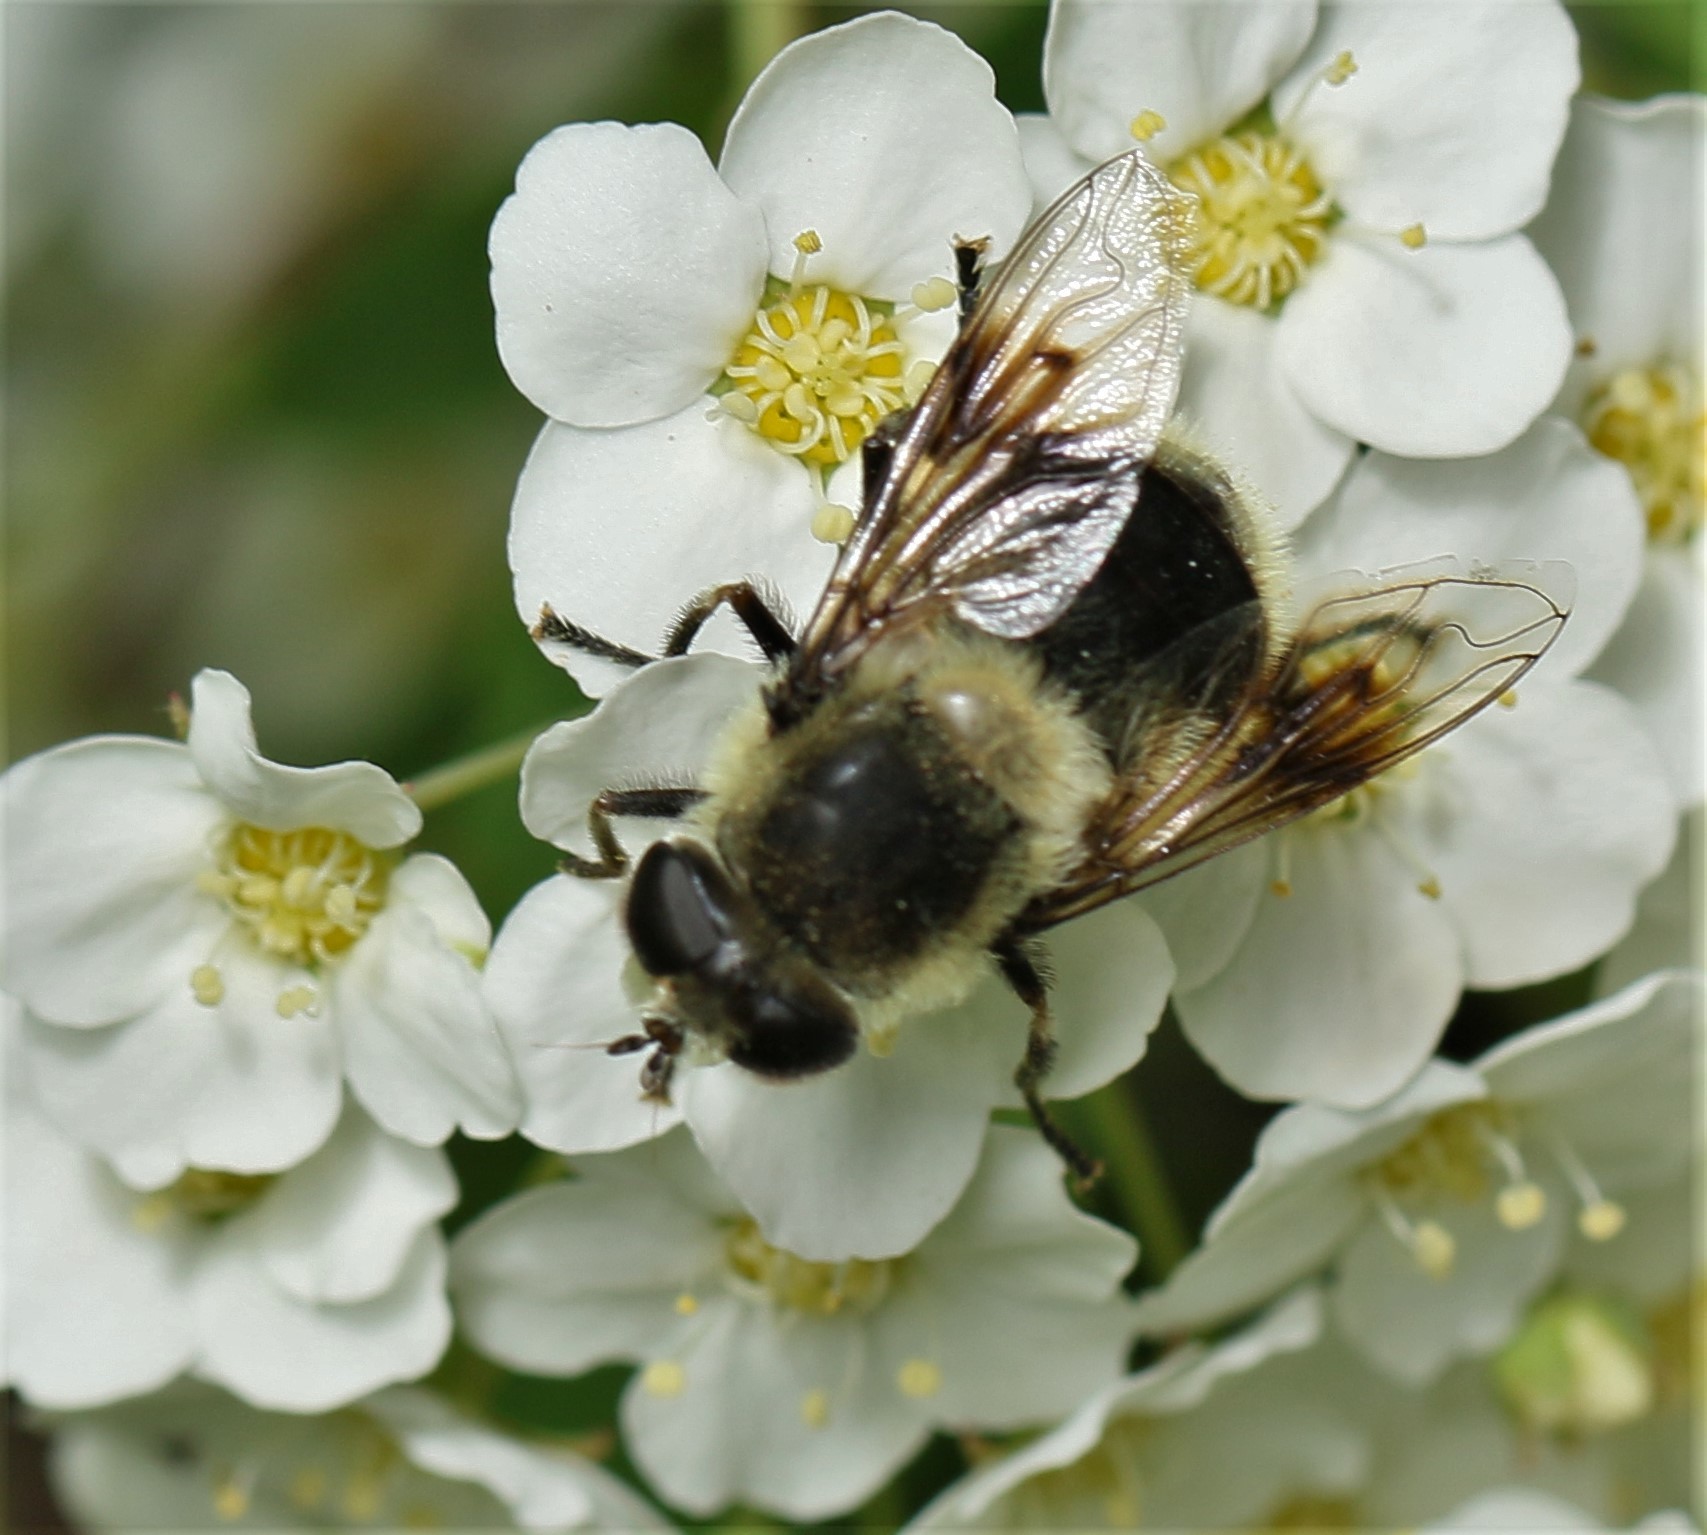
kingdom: Animalia
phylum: Arthropoda
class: Insecta
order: Diptera
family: Syrphidae
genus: Eristalis
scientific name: Eristalis anthophorina
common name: Orange-spotted drone fly
